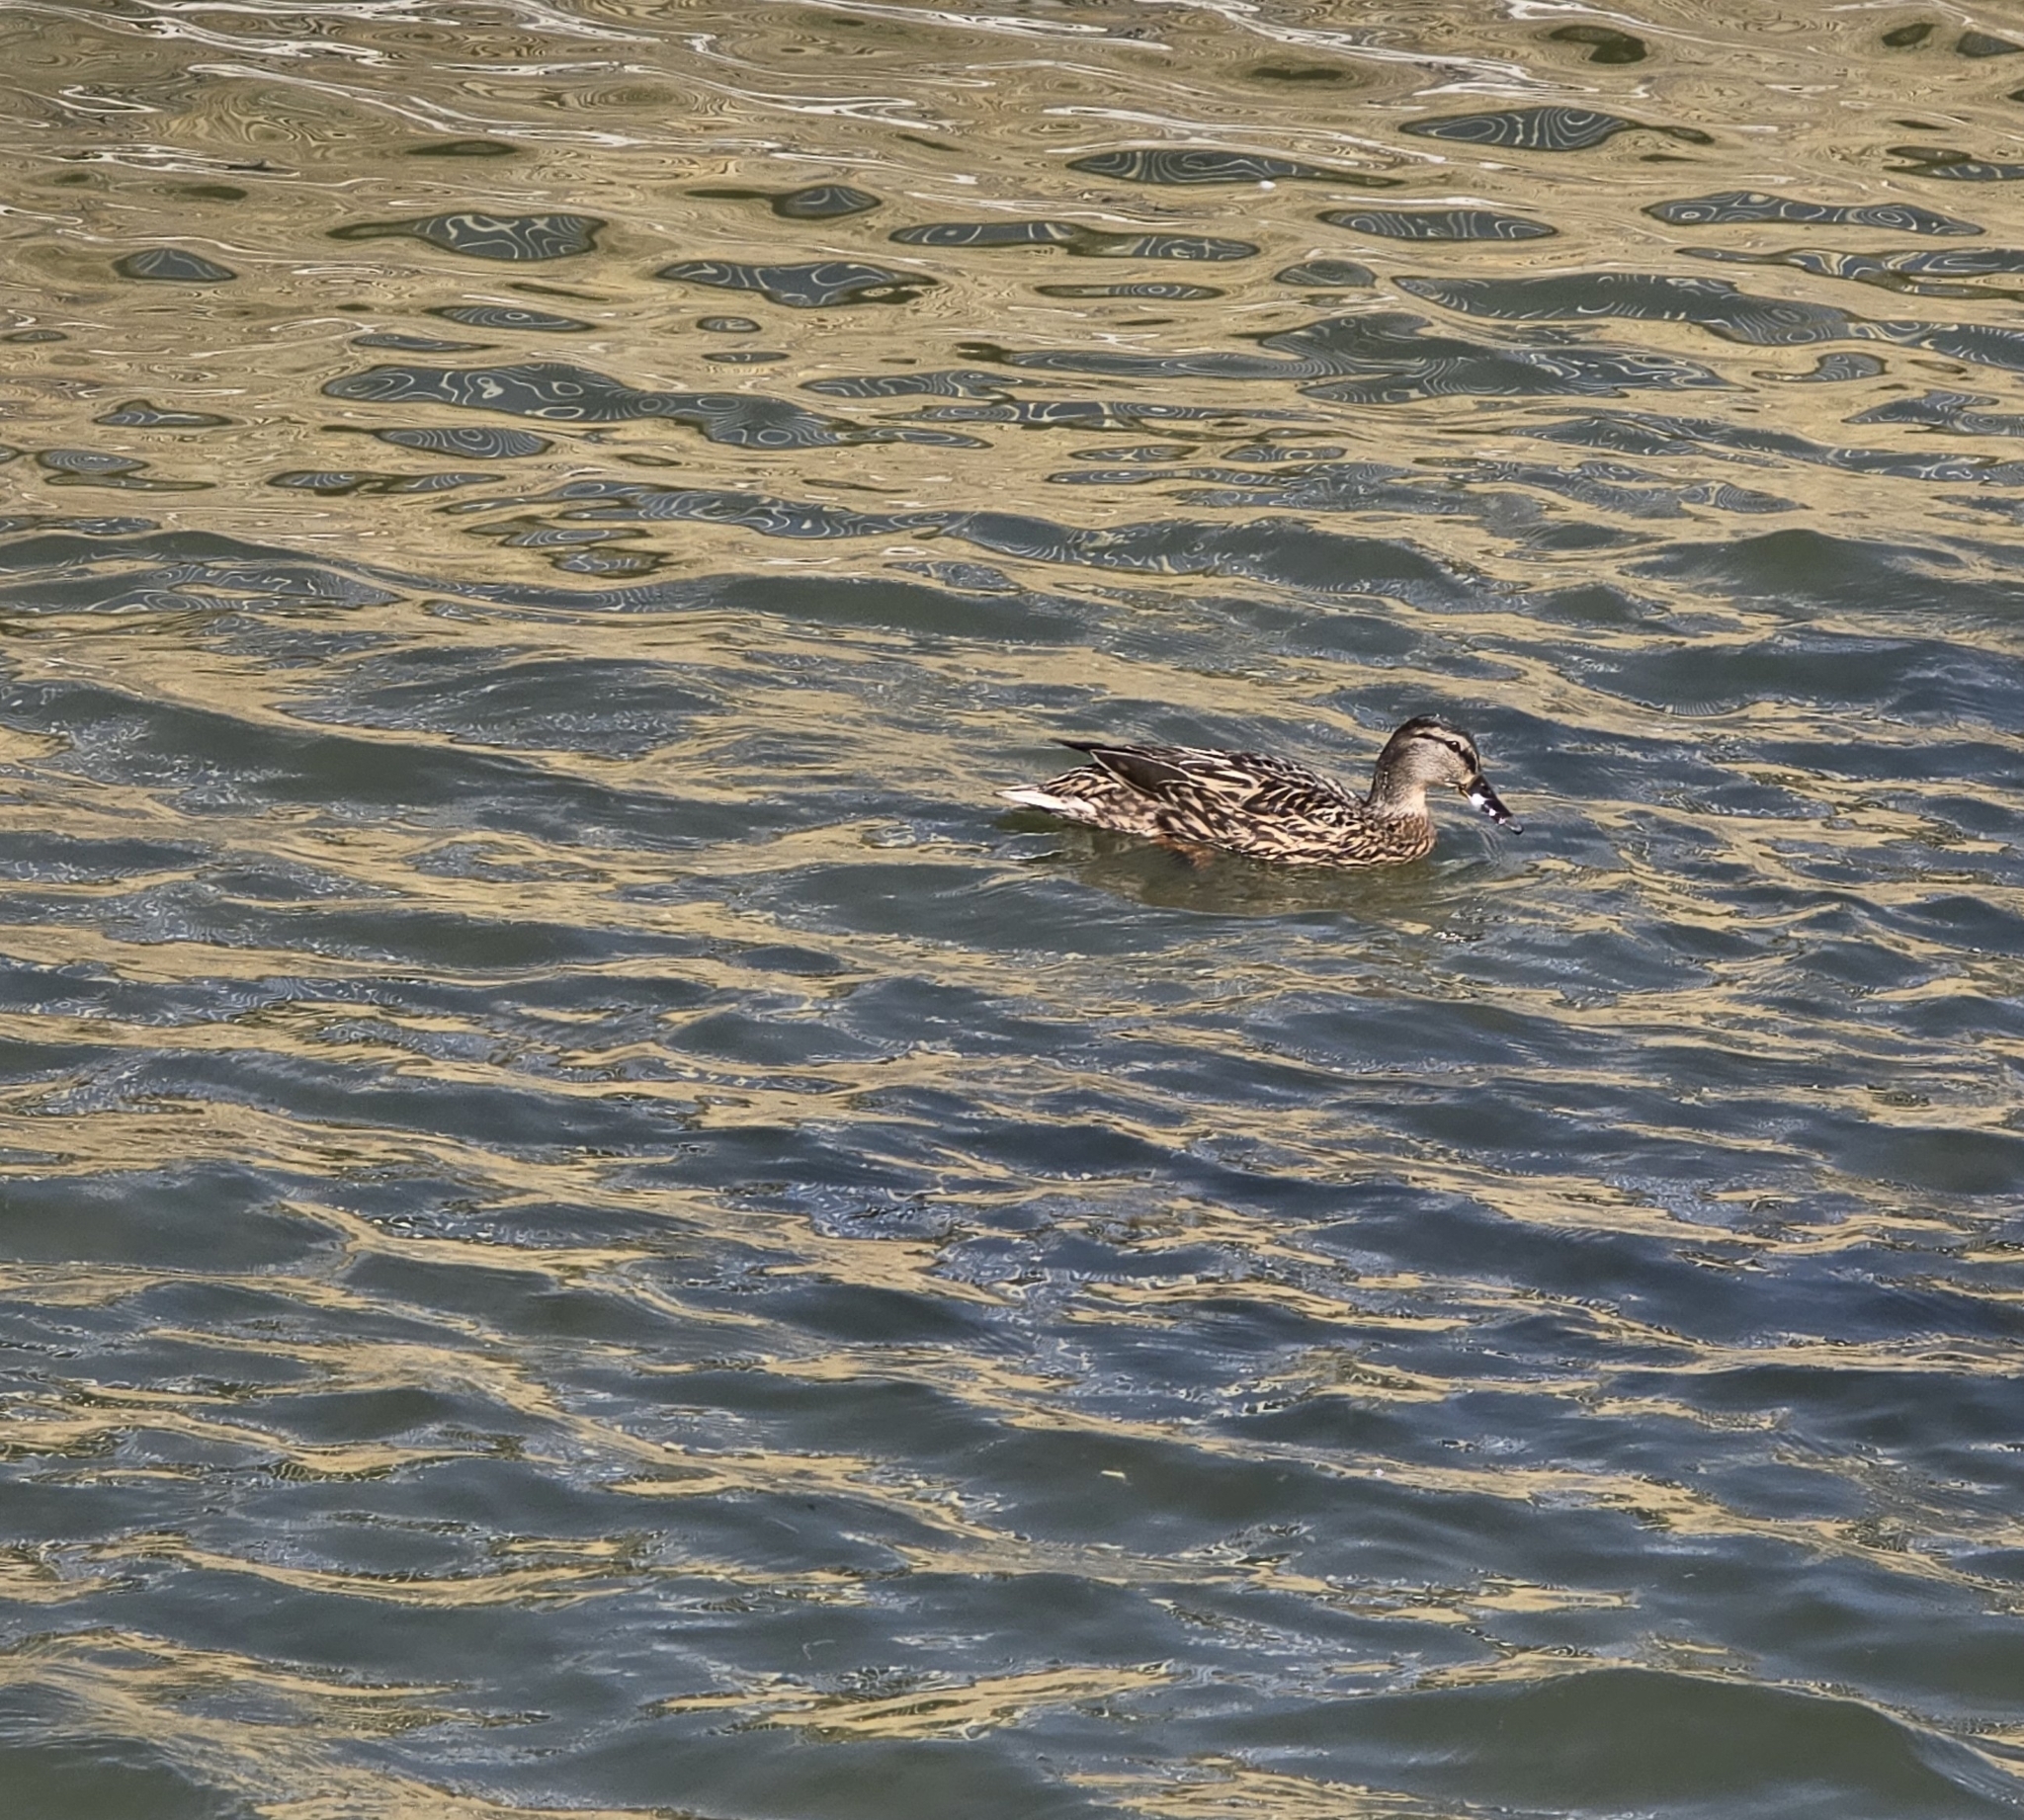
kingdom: Animalia
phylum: Chordata
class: Aves
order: Anseriformes
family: Anatidae
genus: Anas
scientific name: Anas platyrhynchos
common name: Mallard
